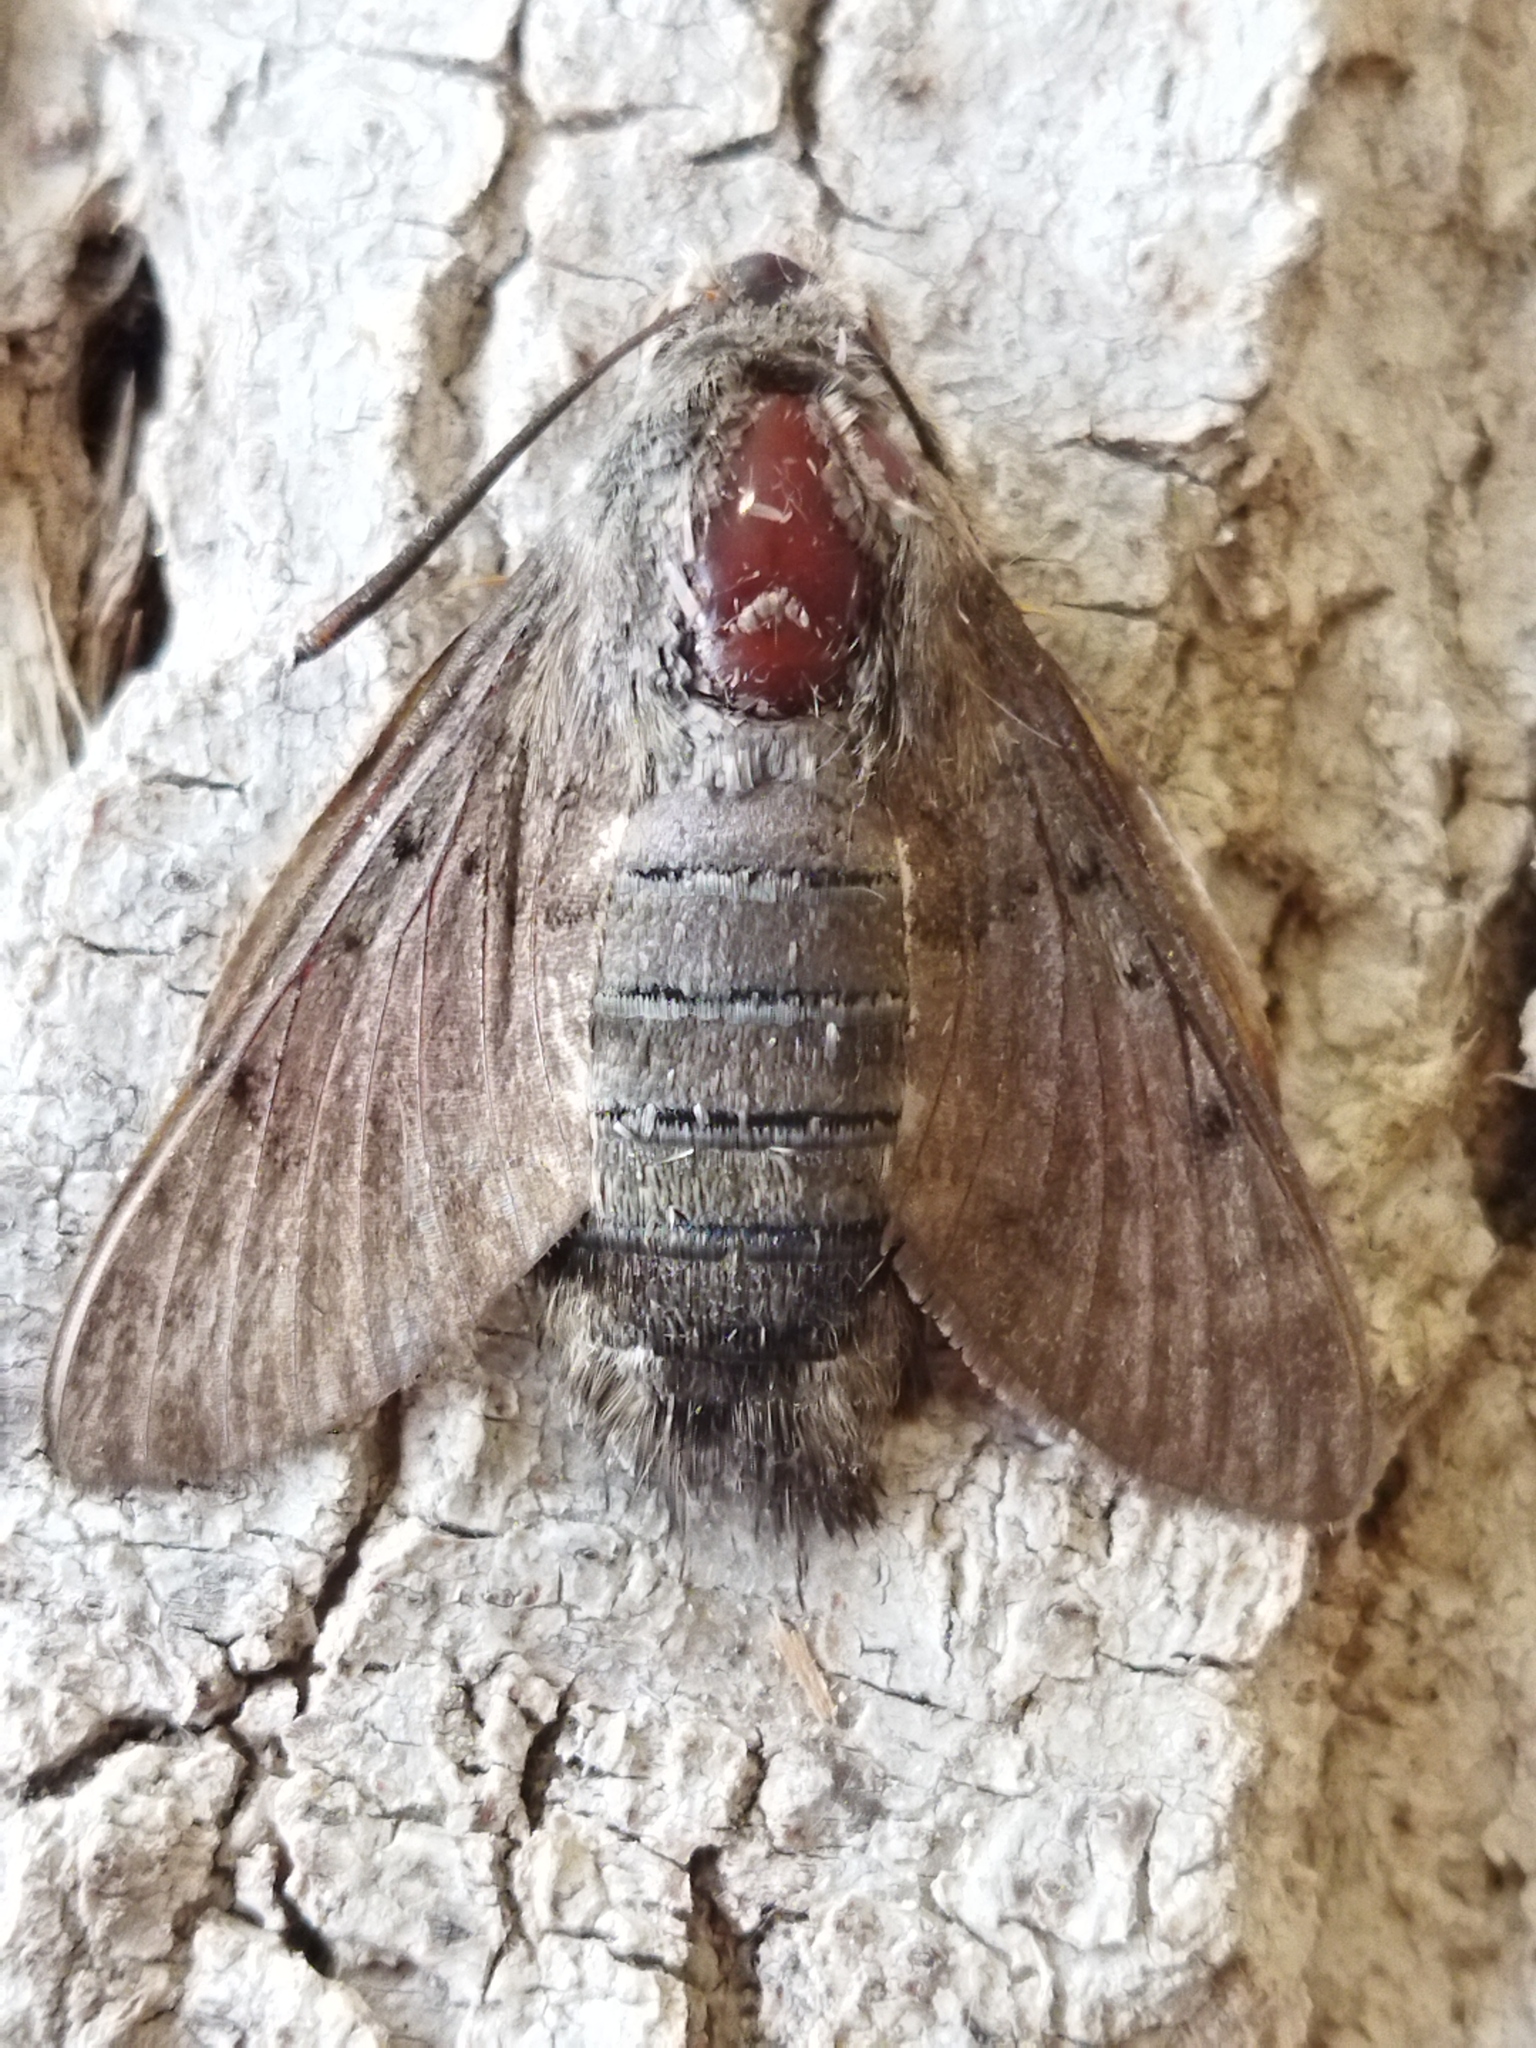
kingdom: Animalia
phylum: Arthropoda
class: Insecta
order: Lepidoptera
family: Sphingidae
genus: Macroglossum
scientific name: Macroglossum stellatarum
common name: Humming-bird hawk-moth
